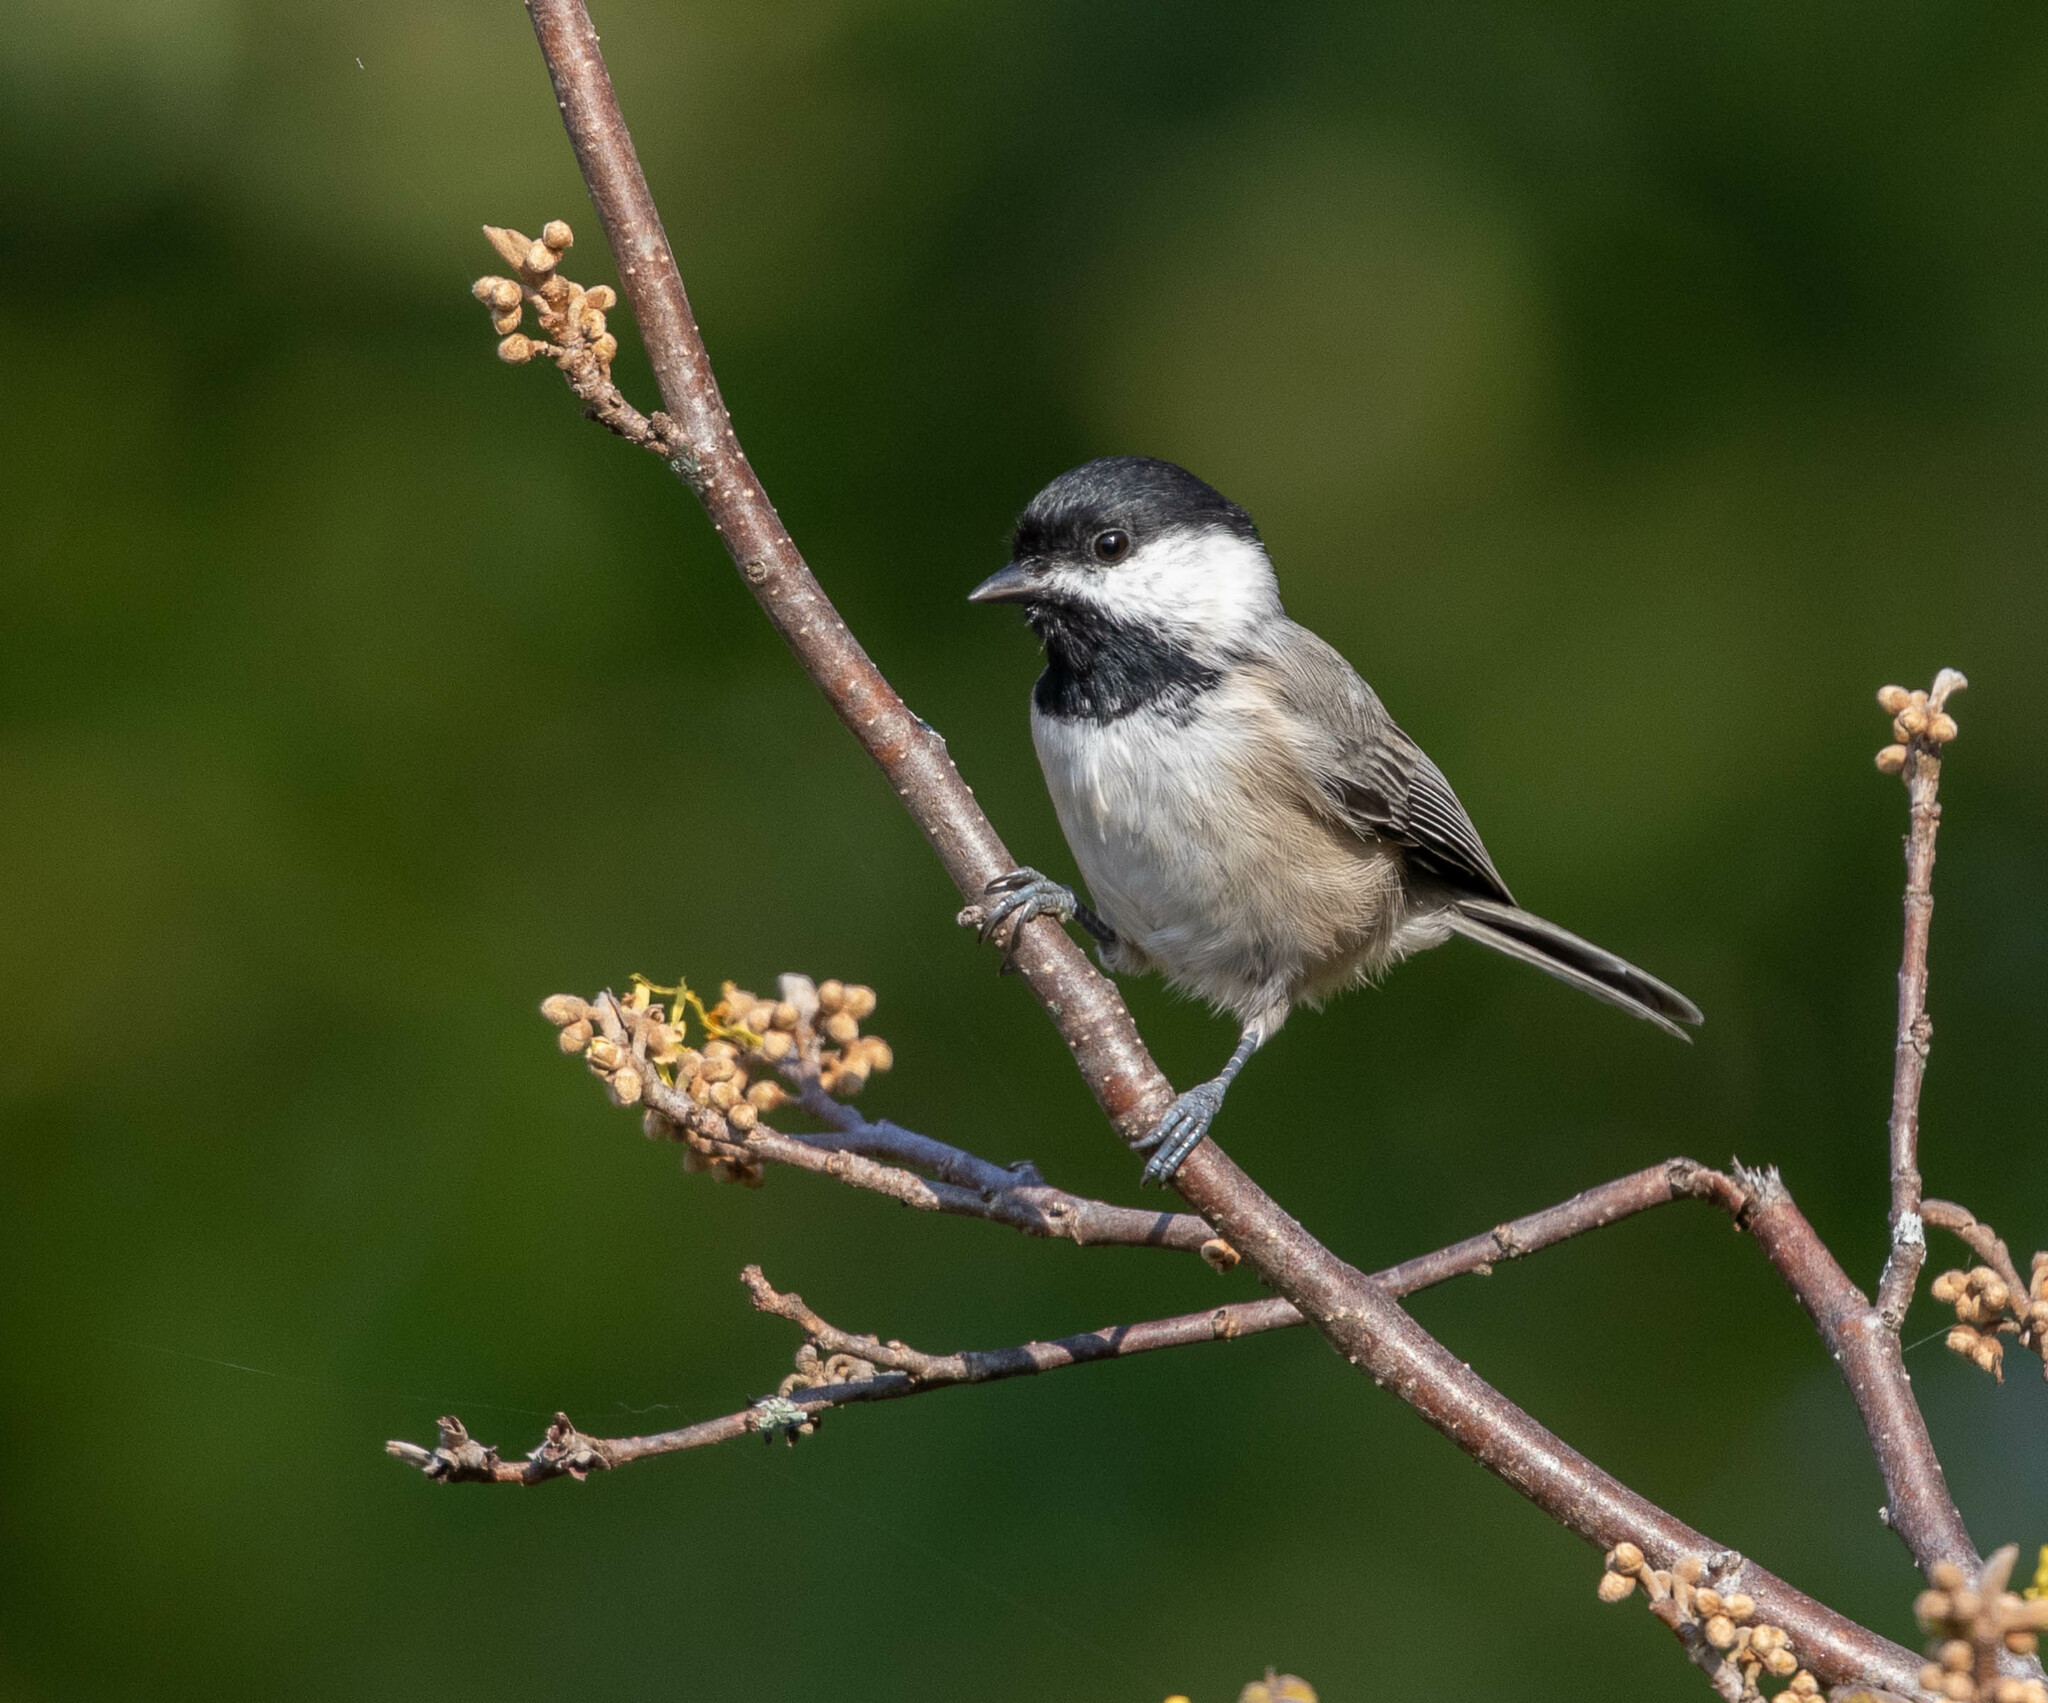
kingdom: Animalia
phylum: Chordata
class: Aves
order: Passeriformes
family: Paridae
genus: Poecile
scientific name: Poecile carolinensis
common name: Carolina chickadee
